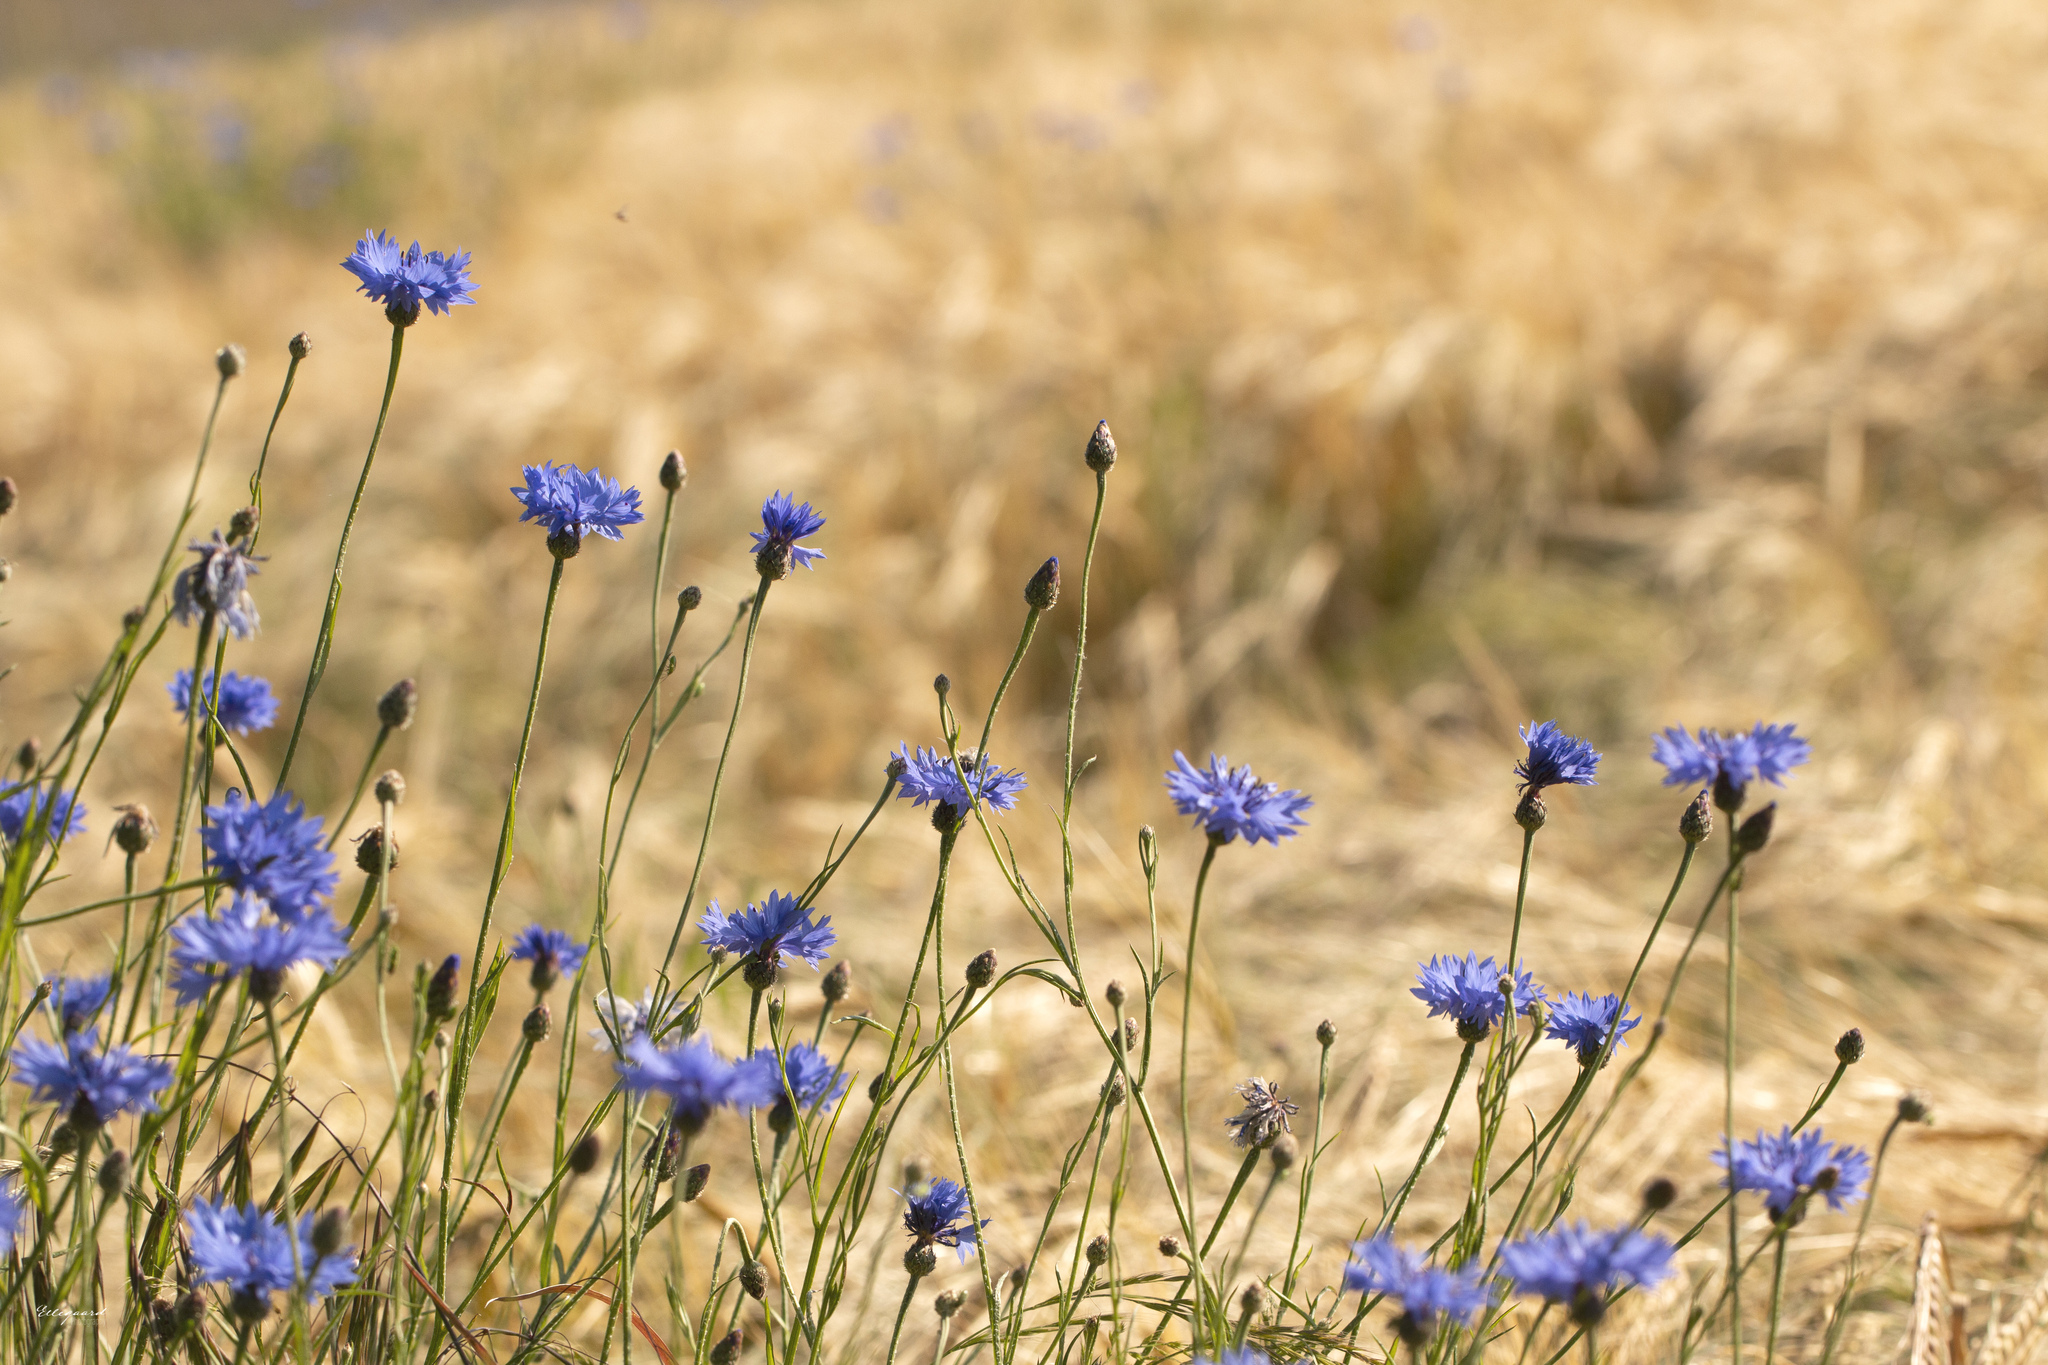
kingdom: Plantae
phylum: Tracheophyta
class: Magnoliopsida
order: Asterales
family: Asteraceae
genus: Centaurea
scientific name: Centaurea cyanus
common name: Cornflower
